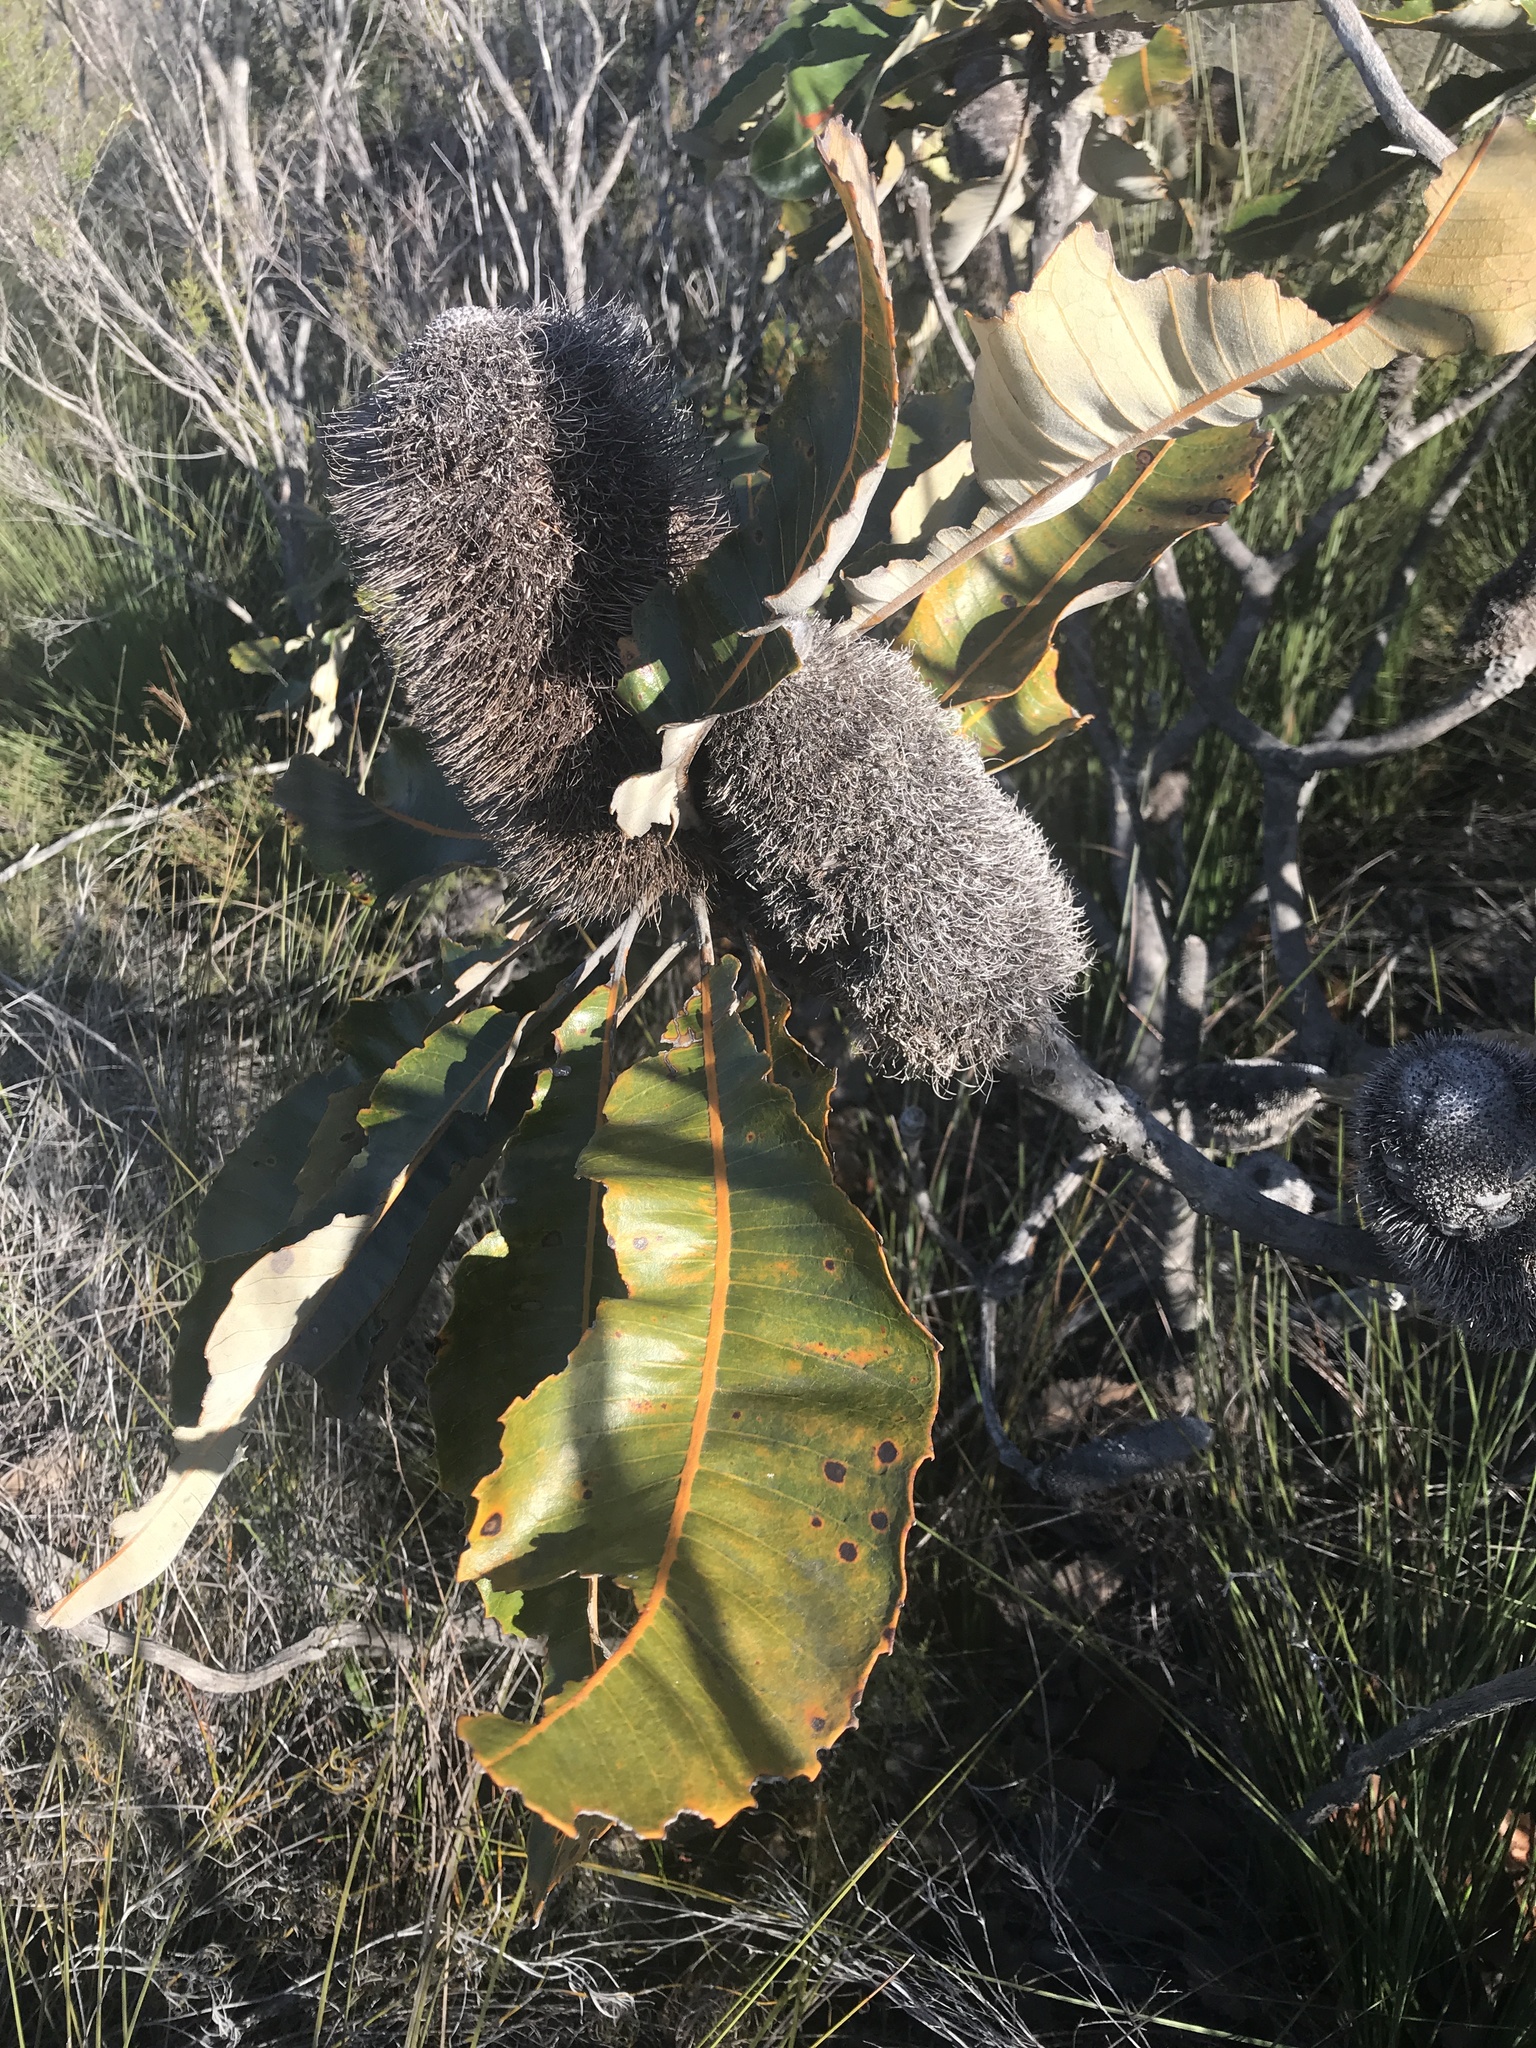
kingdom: Plantae
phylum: Tracheophyta
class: Magnoliopsida
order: Proteales
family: Proteaceae
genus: Banksia
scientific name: Banksia robur
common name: Broadleaf banksia
